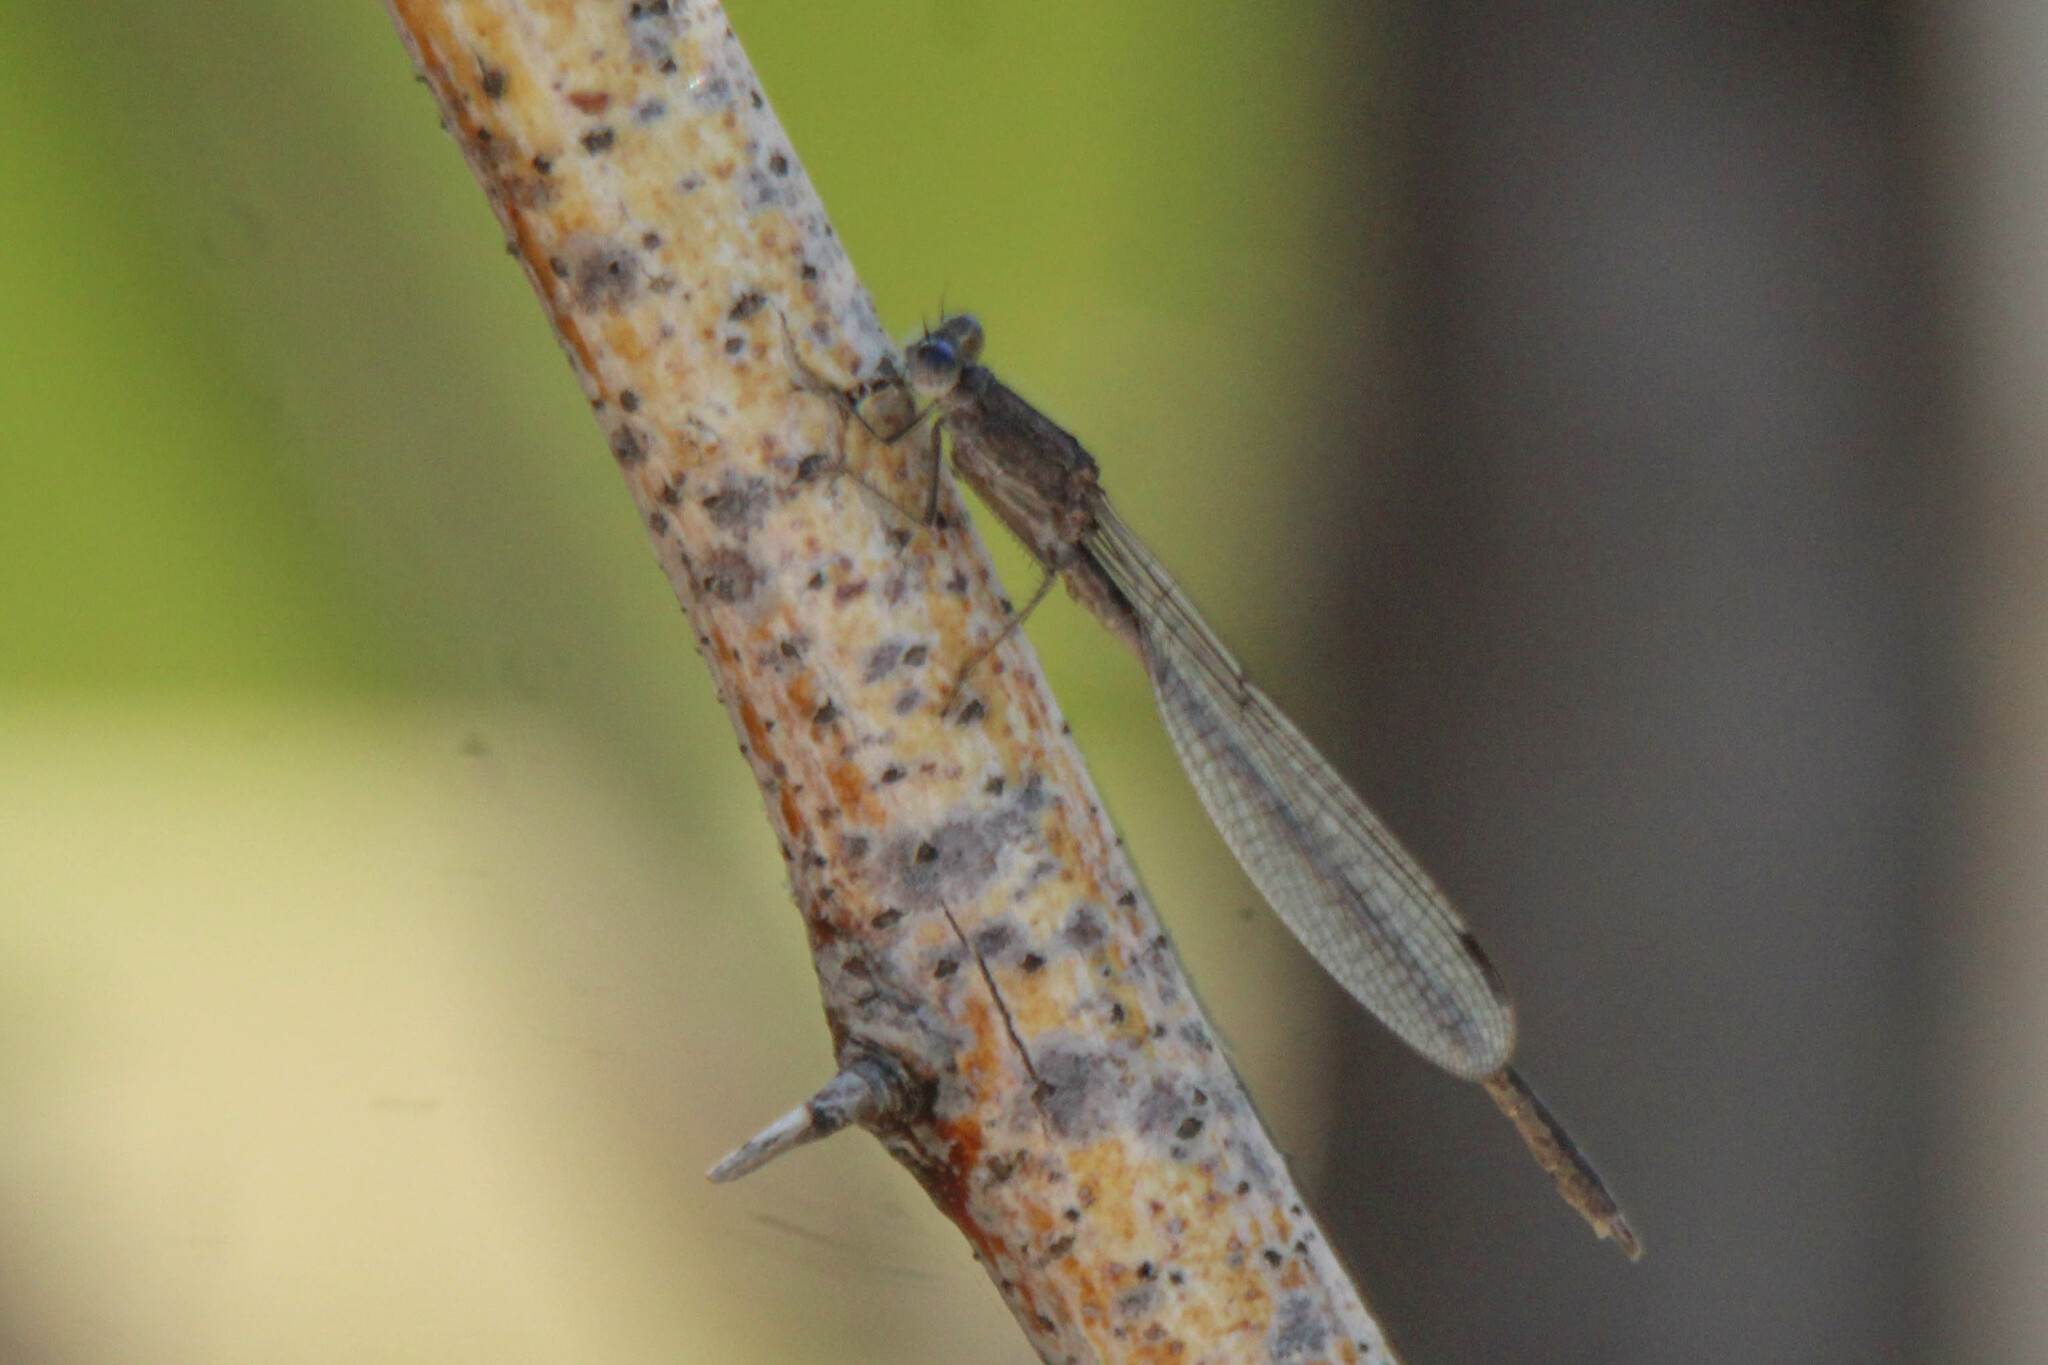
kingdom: Animalia
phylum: Arthropoda
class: Insecta
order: Odonata
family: Lestidae
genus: Sympecma
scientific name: Sympecma paedisca
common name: Siberian winter damsel
